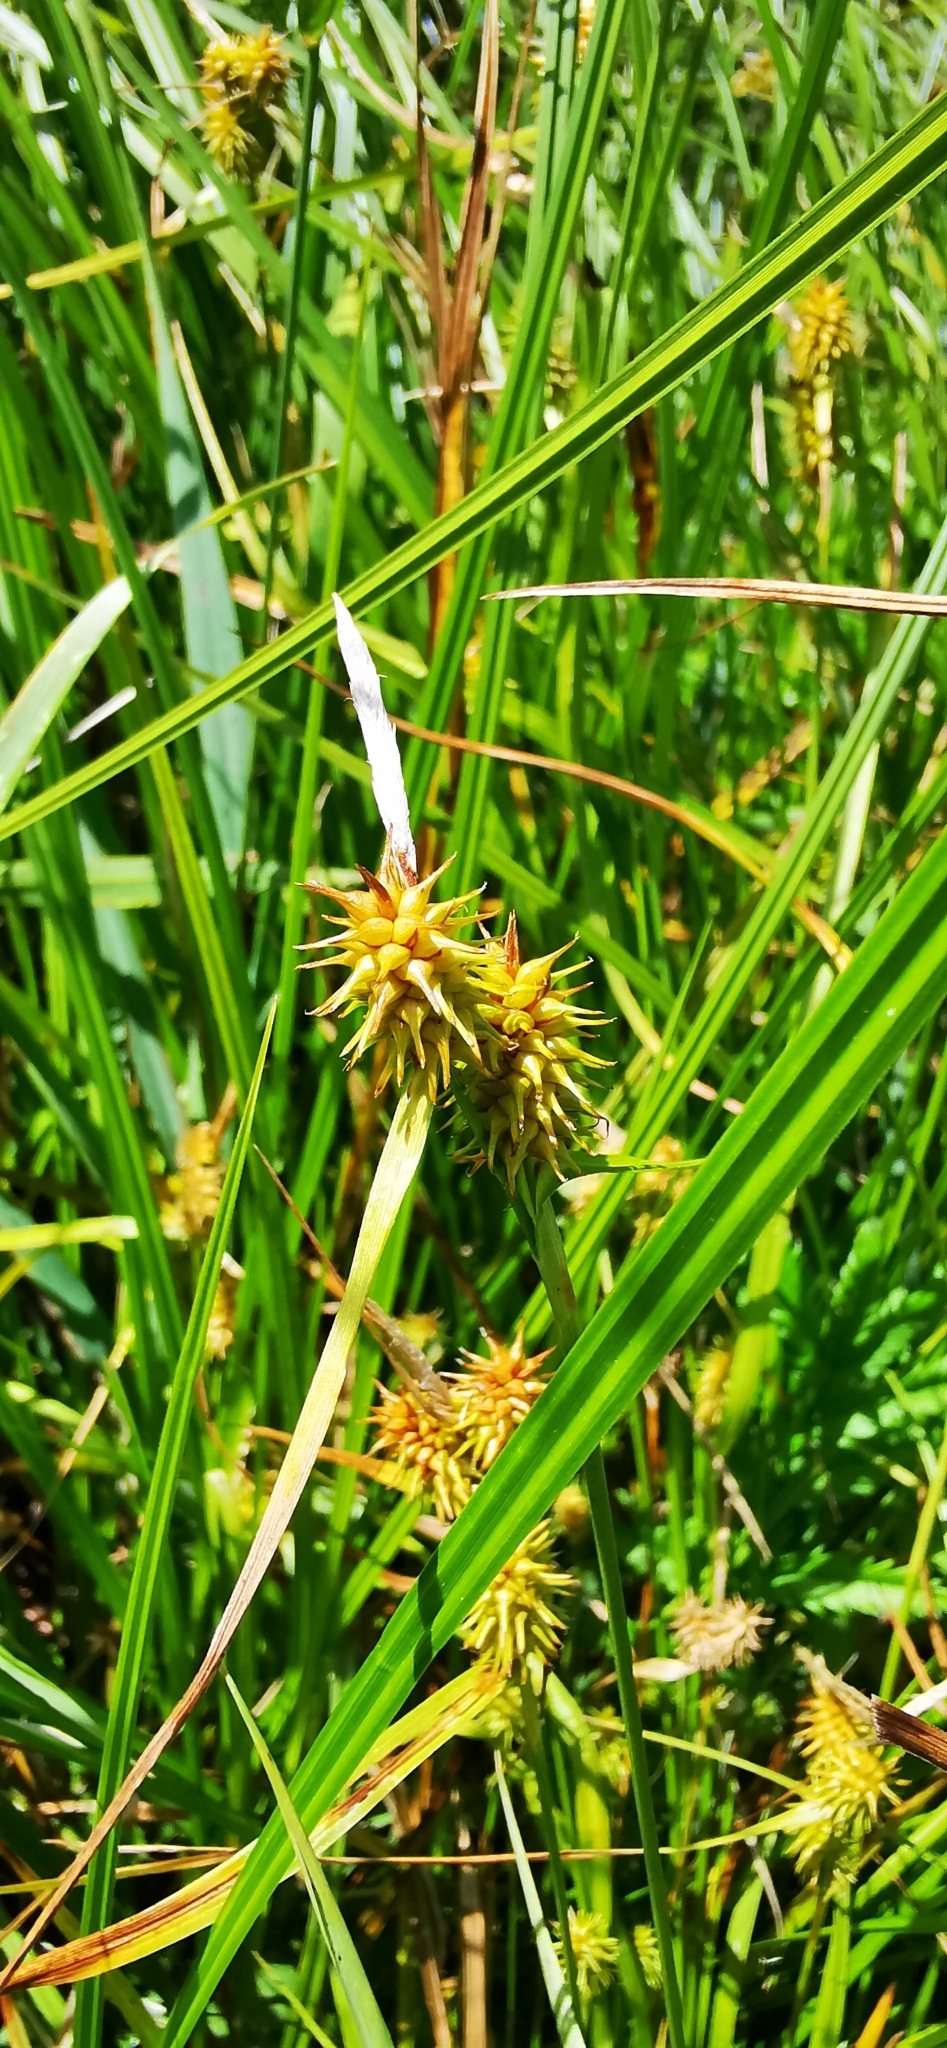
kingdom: Plantae
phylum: Tracheophyta
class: Liliopsida
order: Poales
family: Cyperaceae
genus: Carex
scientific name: Carex flava
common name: Large yellow-sedge
